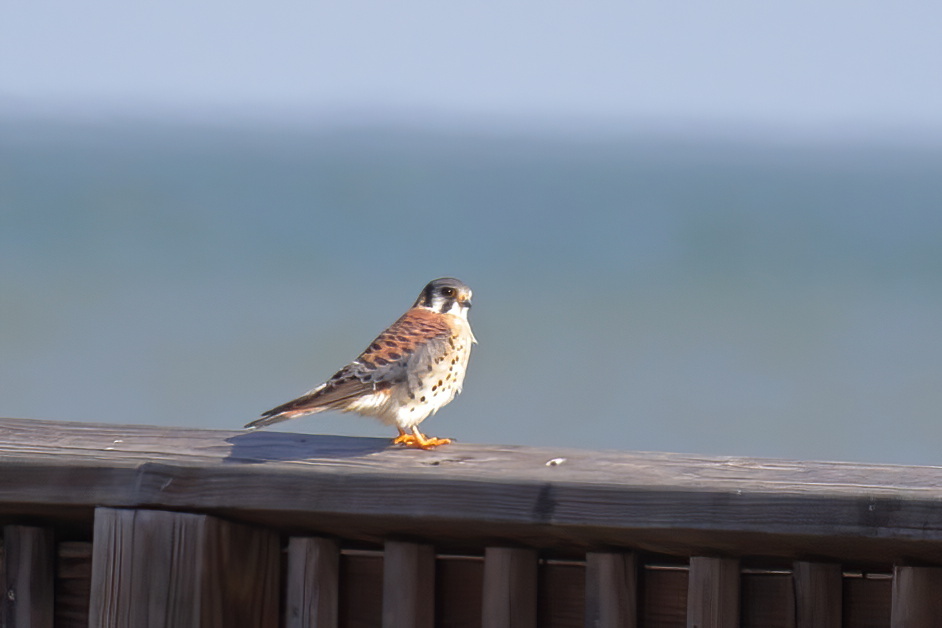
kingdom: Animalia
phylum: Chordata
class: Aves
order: Falconiformes
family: Falconidae
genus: Falco
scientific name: Falco sparverius
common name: American kestrel
